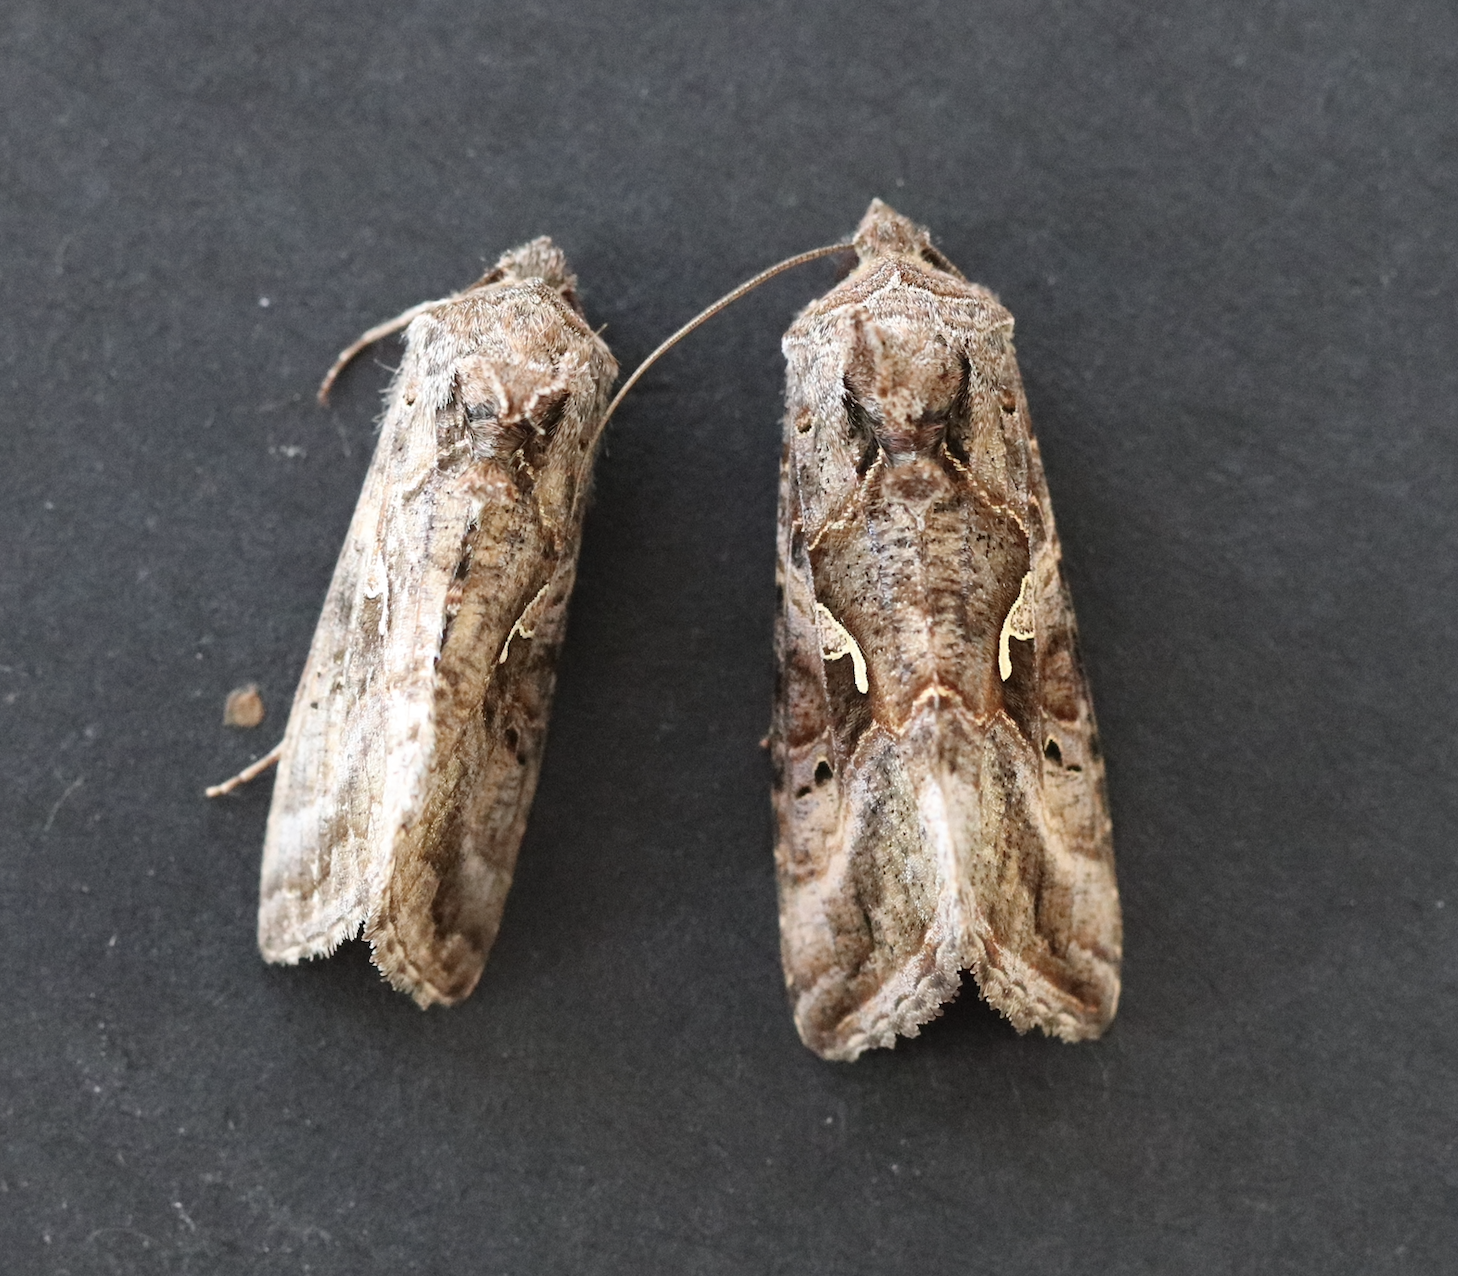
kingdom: Animalia
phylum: Arthropoda
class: Insecta
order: Lepidoptera
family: Noctuidae
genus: Autographa
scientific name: Autographa gamma
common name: Silver y
